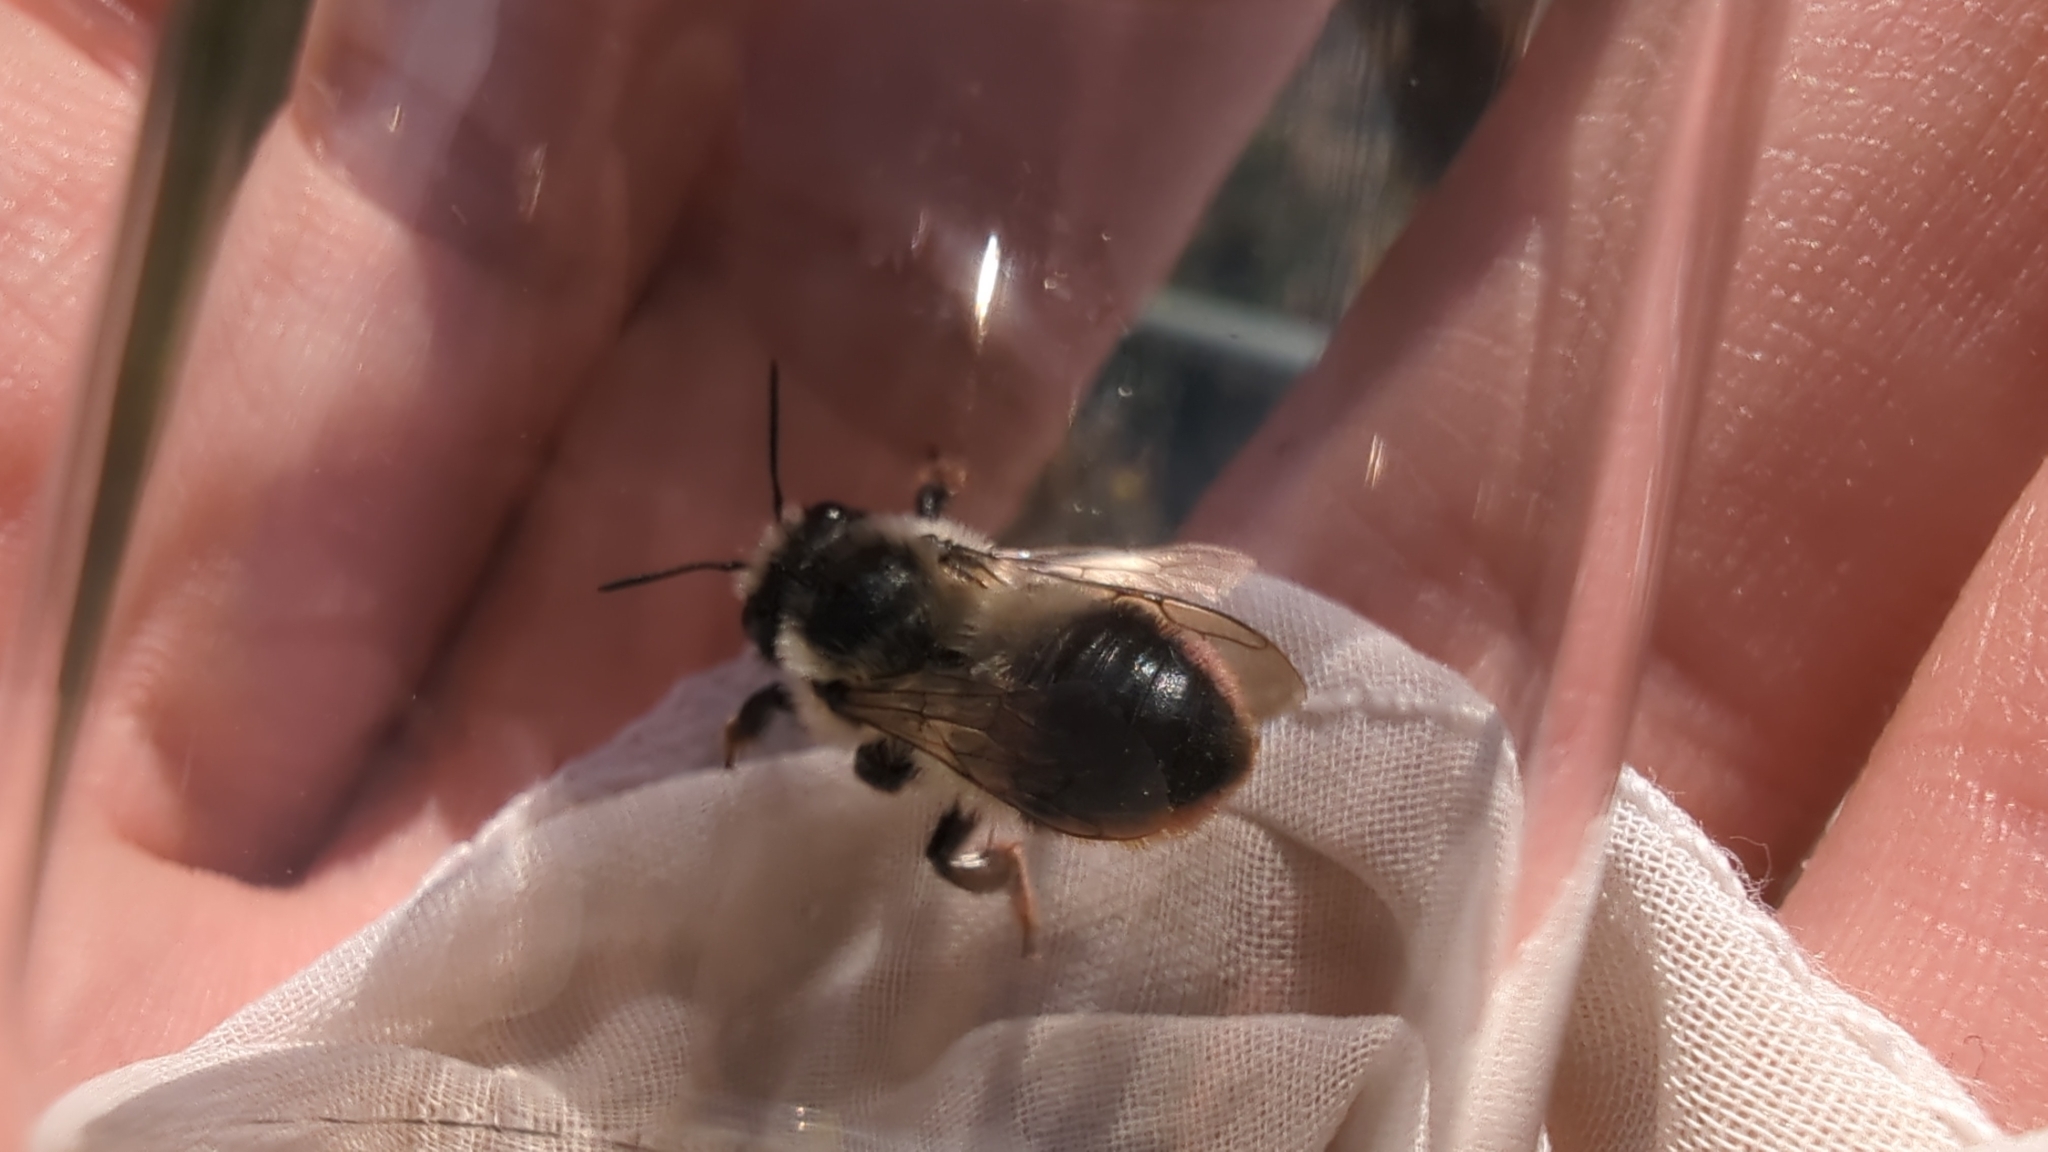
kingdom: Animalia
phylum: Arthropoda
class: Insecta
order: Hymenoptera
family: Megachilidae
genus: Megachile
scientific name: Megachile melanophaea
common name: Black-and-gray leafcutter bee
